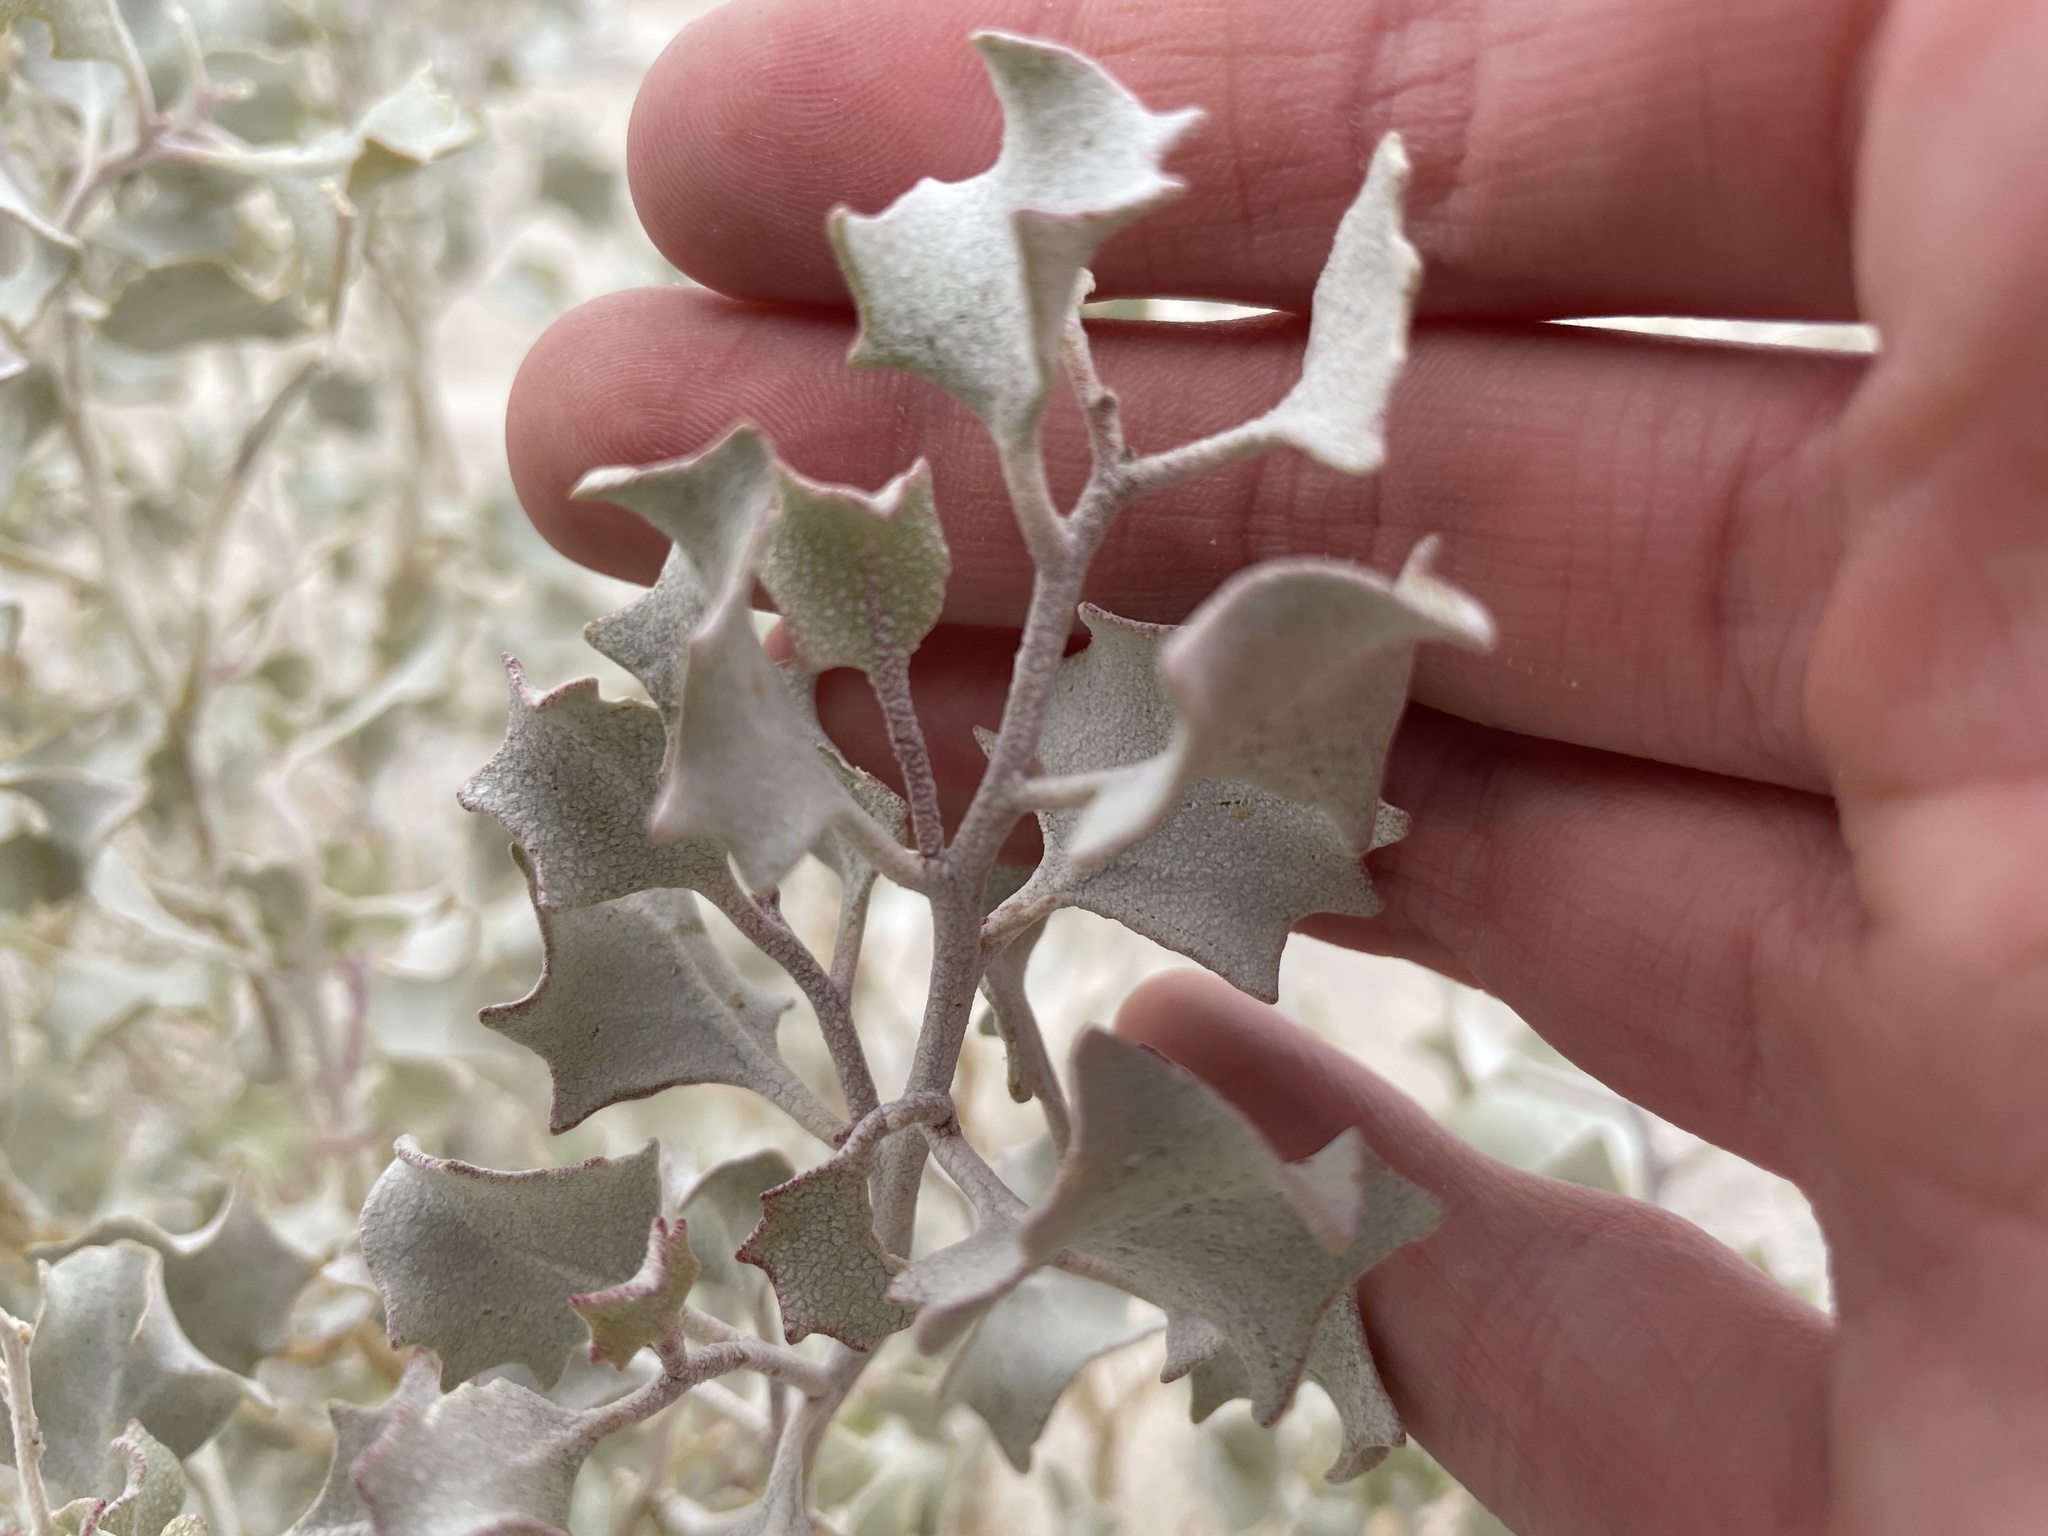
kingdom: Plantae
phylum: Tracheophyta
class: Magnoliopsida
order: Caryophyllales
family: Amaranthaceae
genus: Atriplex
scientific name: Atriplex hymenelytra
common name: Desert-holly
